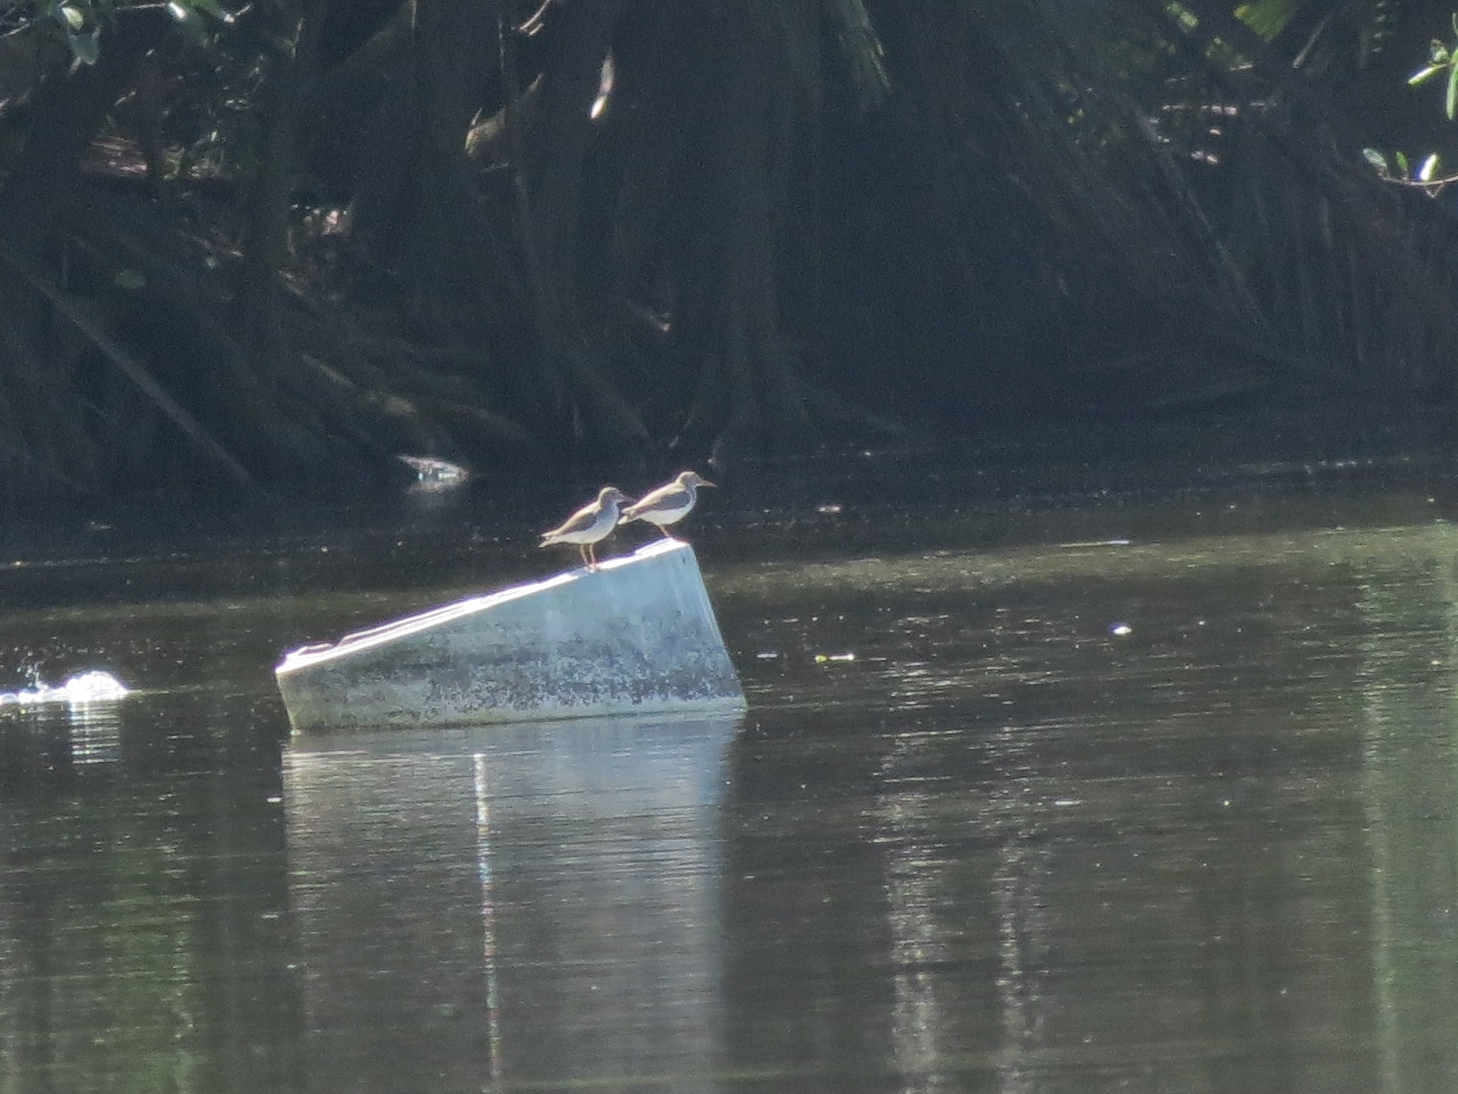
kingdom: Animalia
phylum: Chordata
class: Aves
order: Charadriiformes
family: Scolopacidae
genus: Actitis
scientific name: Actitis macularius
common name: Spotted sandpiper
